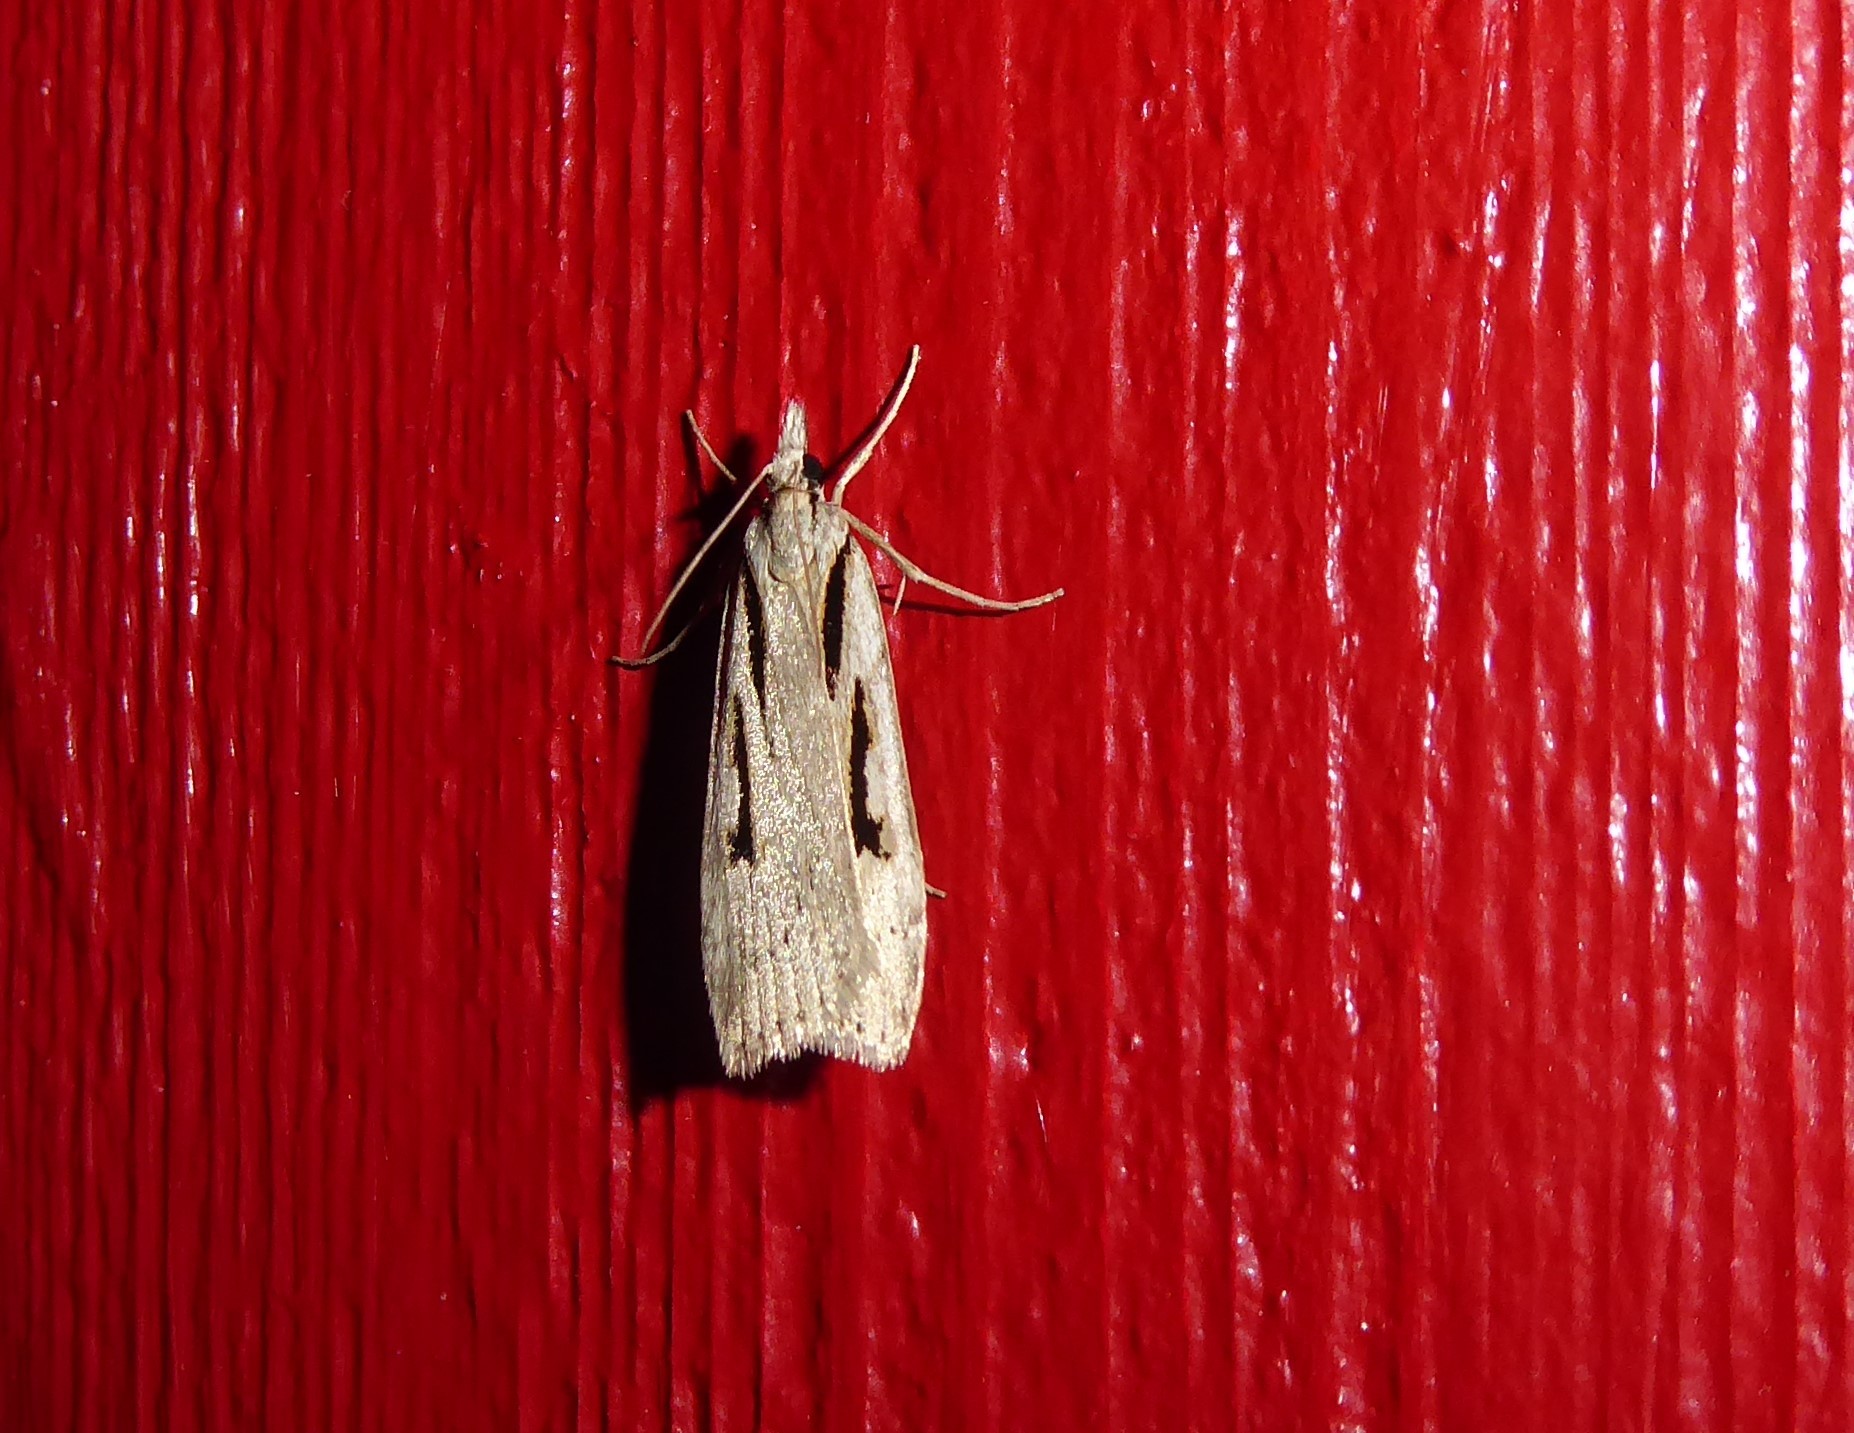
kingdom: Animalia
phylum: Arthropoda
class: Insecta
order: Lepidoptera
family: Crambidae
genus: Scoparia
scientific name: Scoparia rotuellus
